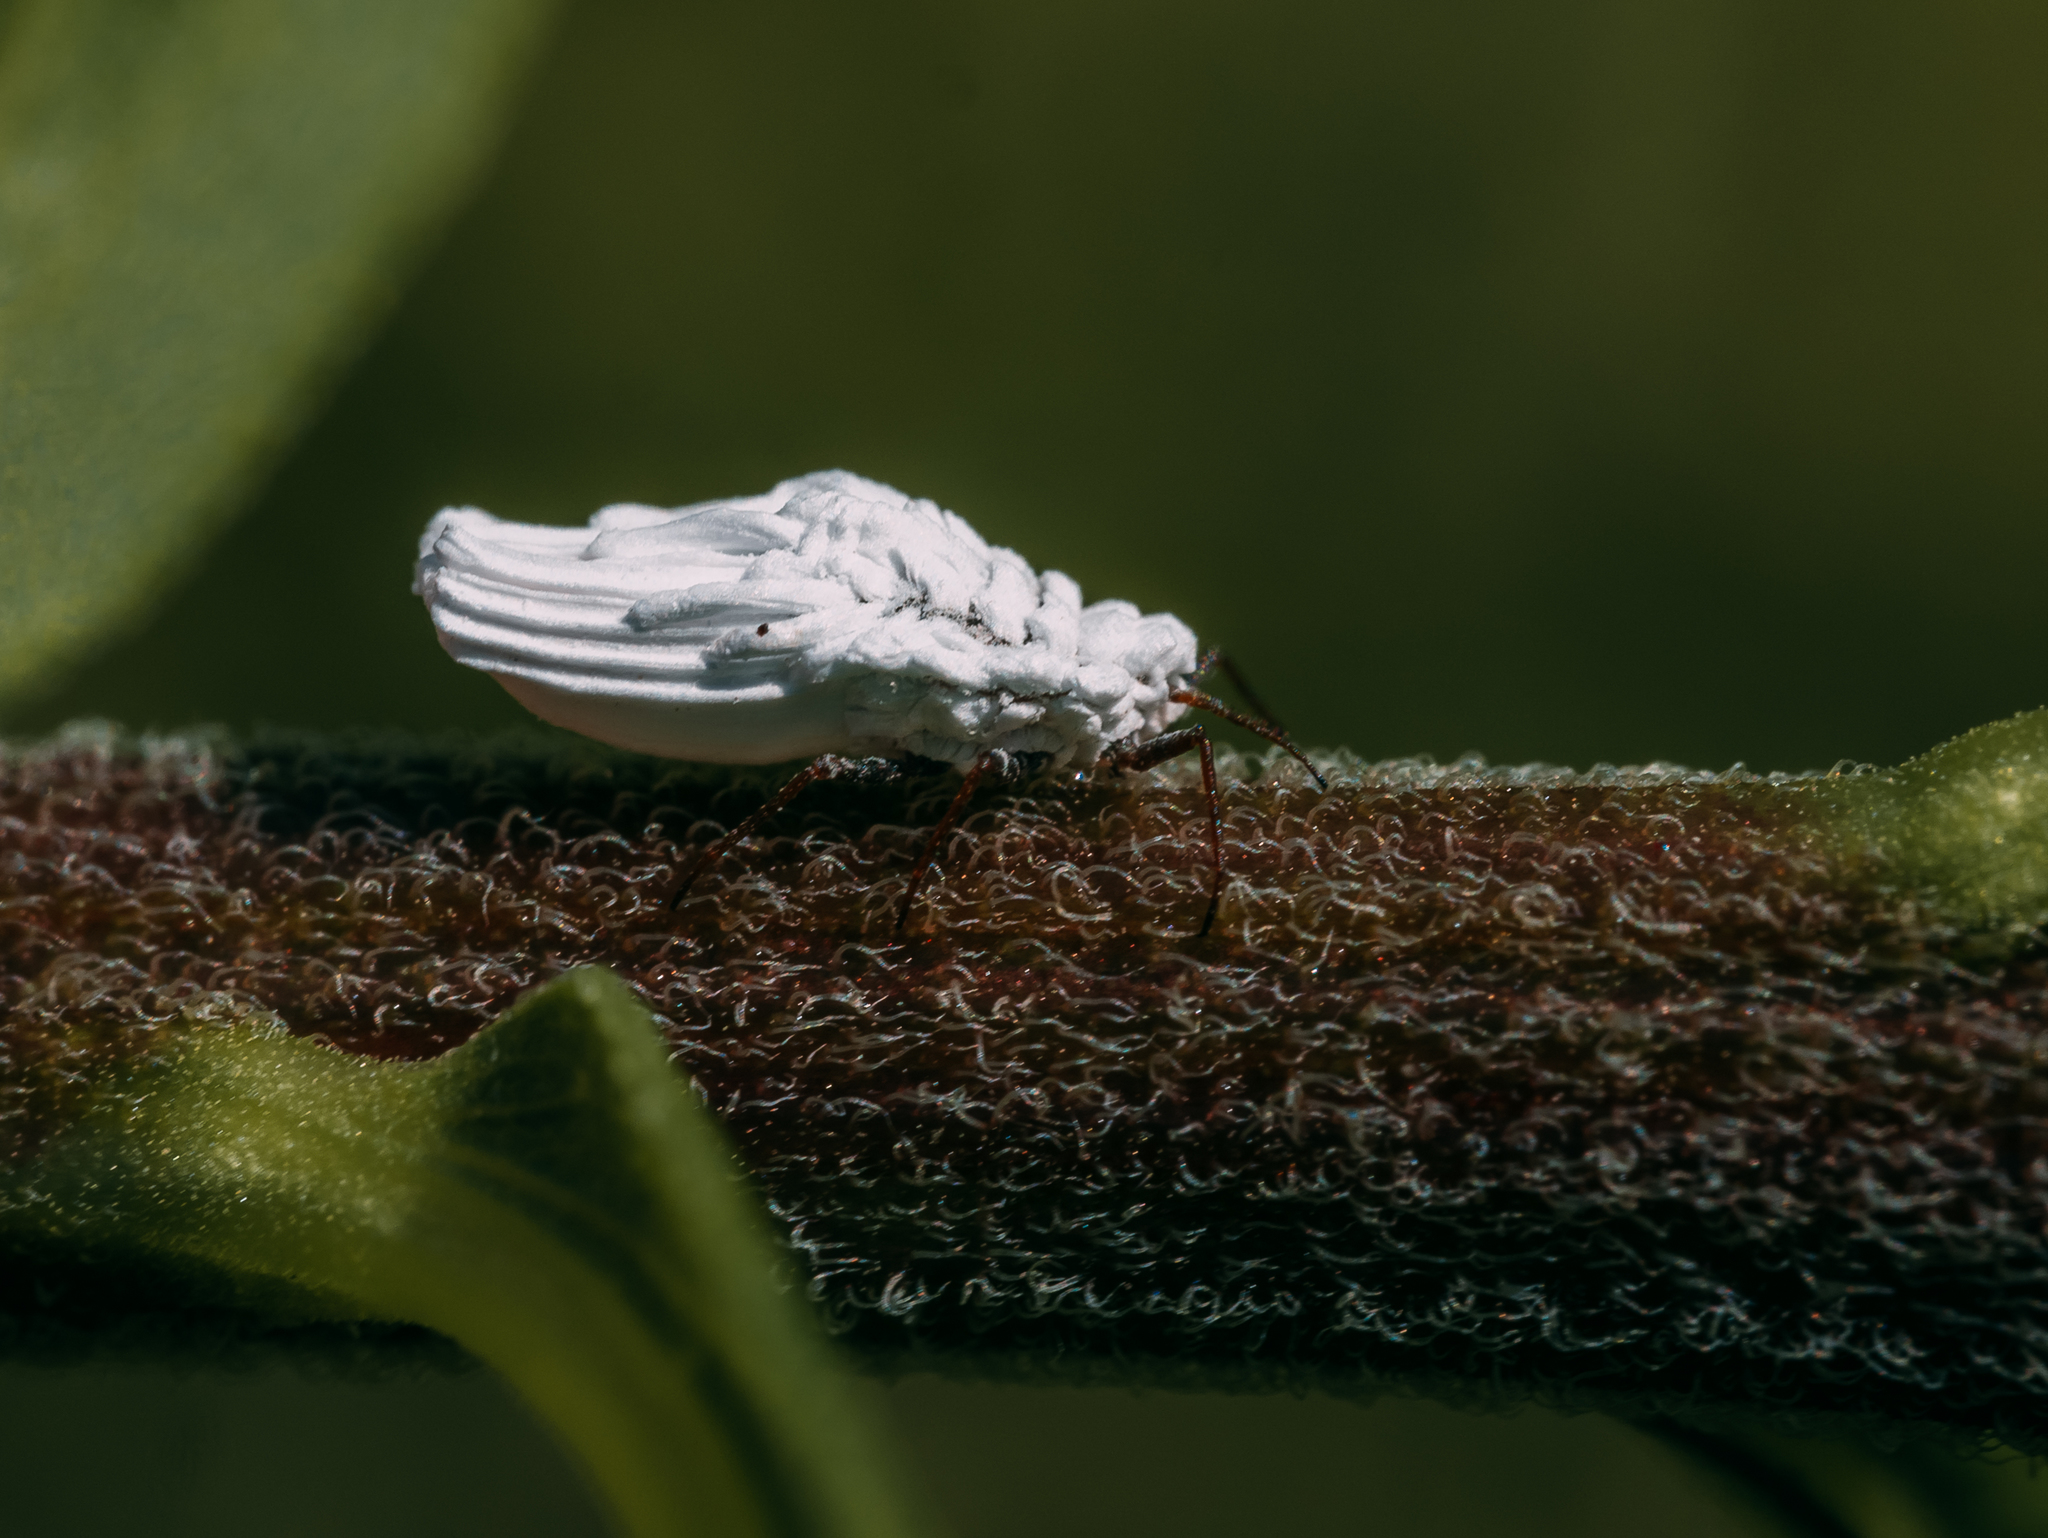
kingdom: Animalia
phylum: Arthropoda
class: Insecta
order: Hemiptera
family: Ortheziidae
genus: Orthezia
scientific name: Orthezia urticae
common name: Ensign coccid
